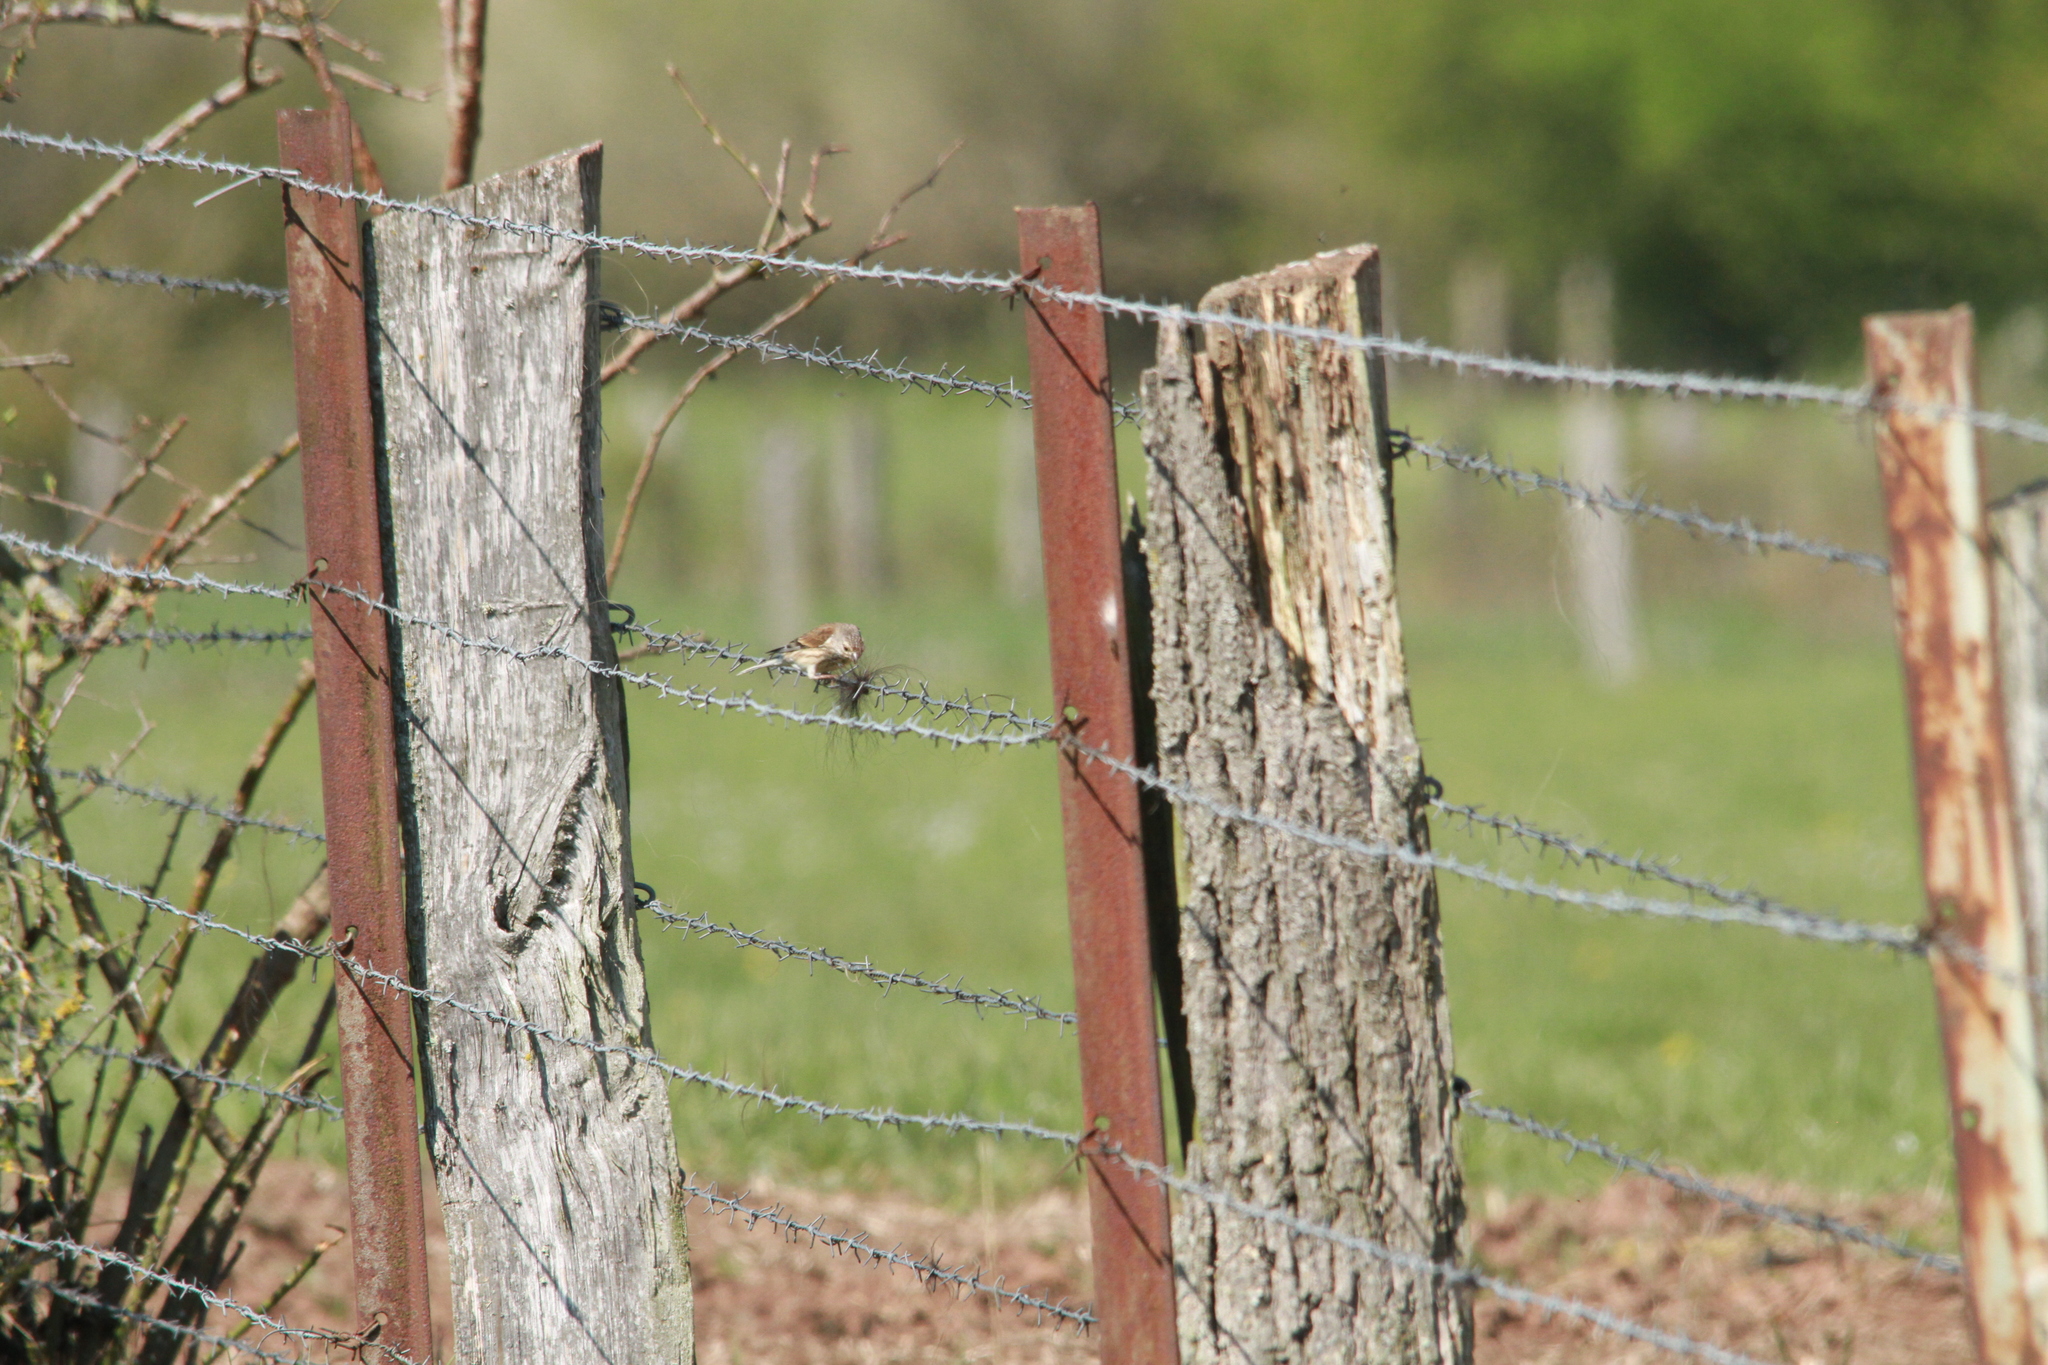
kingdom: Animalia
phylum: Chordata
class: Aves
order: Passeriformes
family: Fringillidae
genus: Linaria
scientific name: Linaria cannabina
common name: Common linnet
